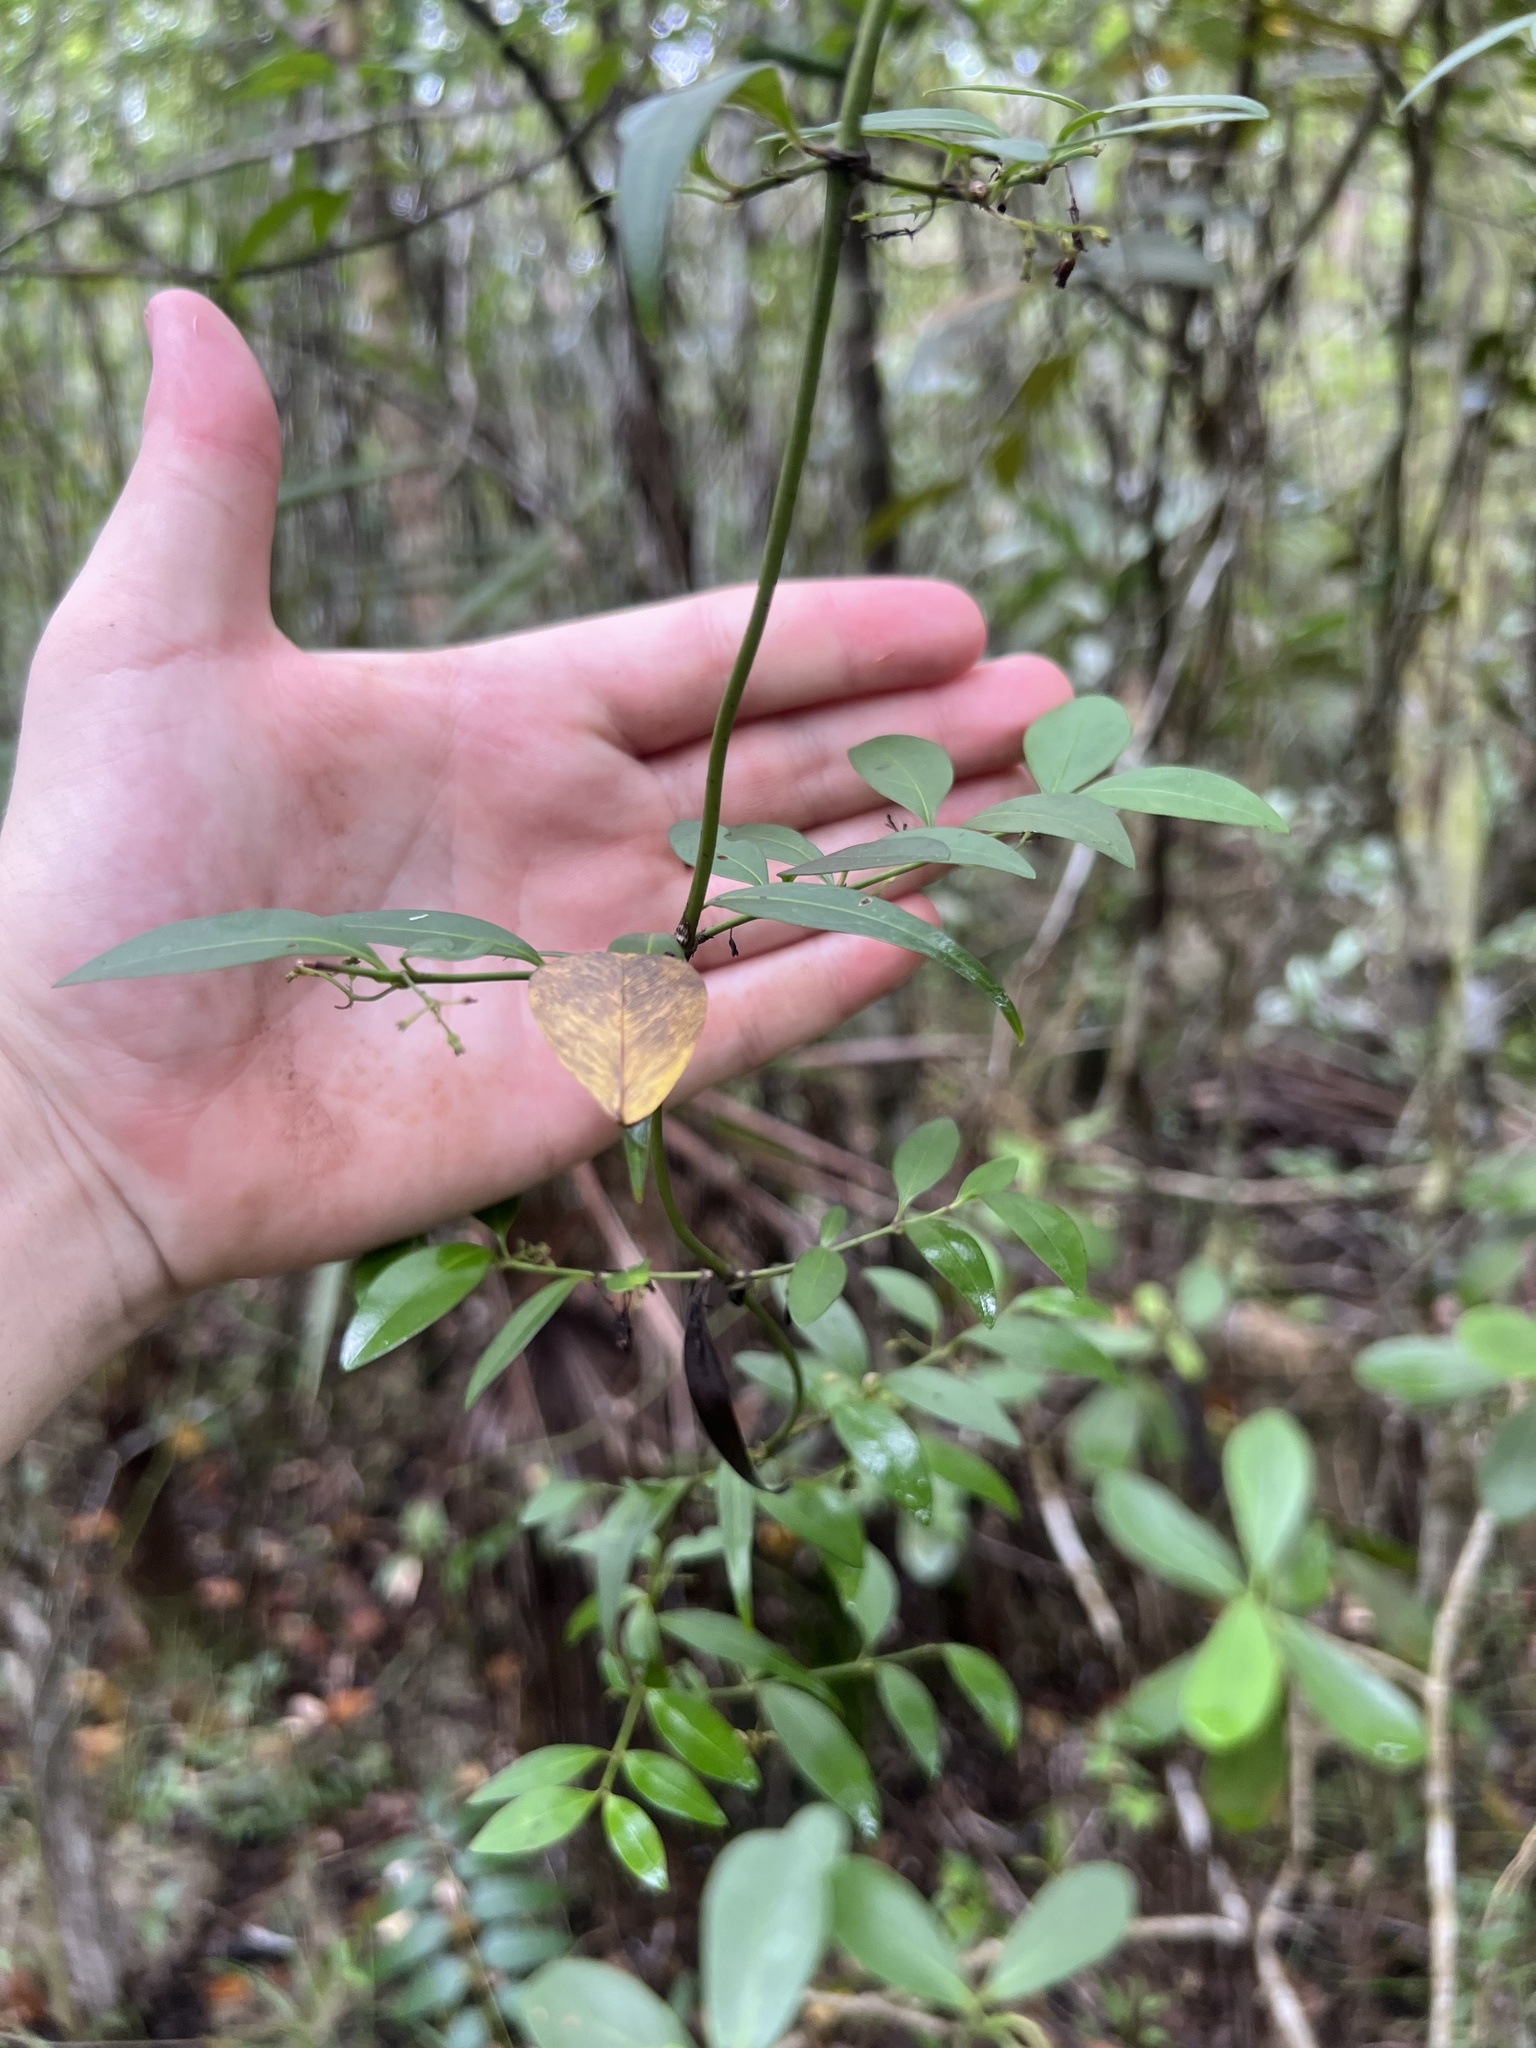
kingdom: Plantae
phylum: Tracheophyta
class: Magnoliopsida
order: Gentianales
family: Rubiaceae
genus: Chiococca
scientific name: Chiococca alba
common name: Snowberry
